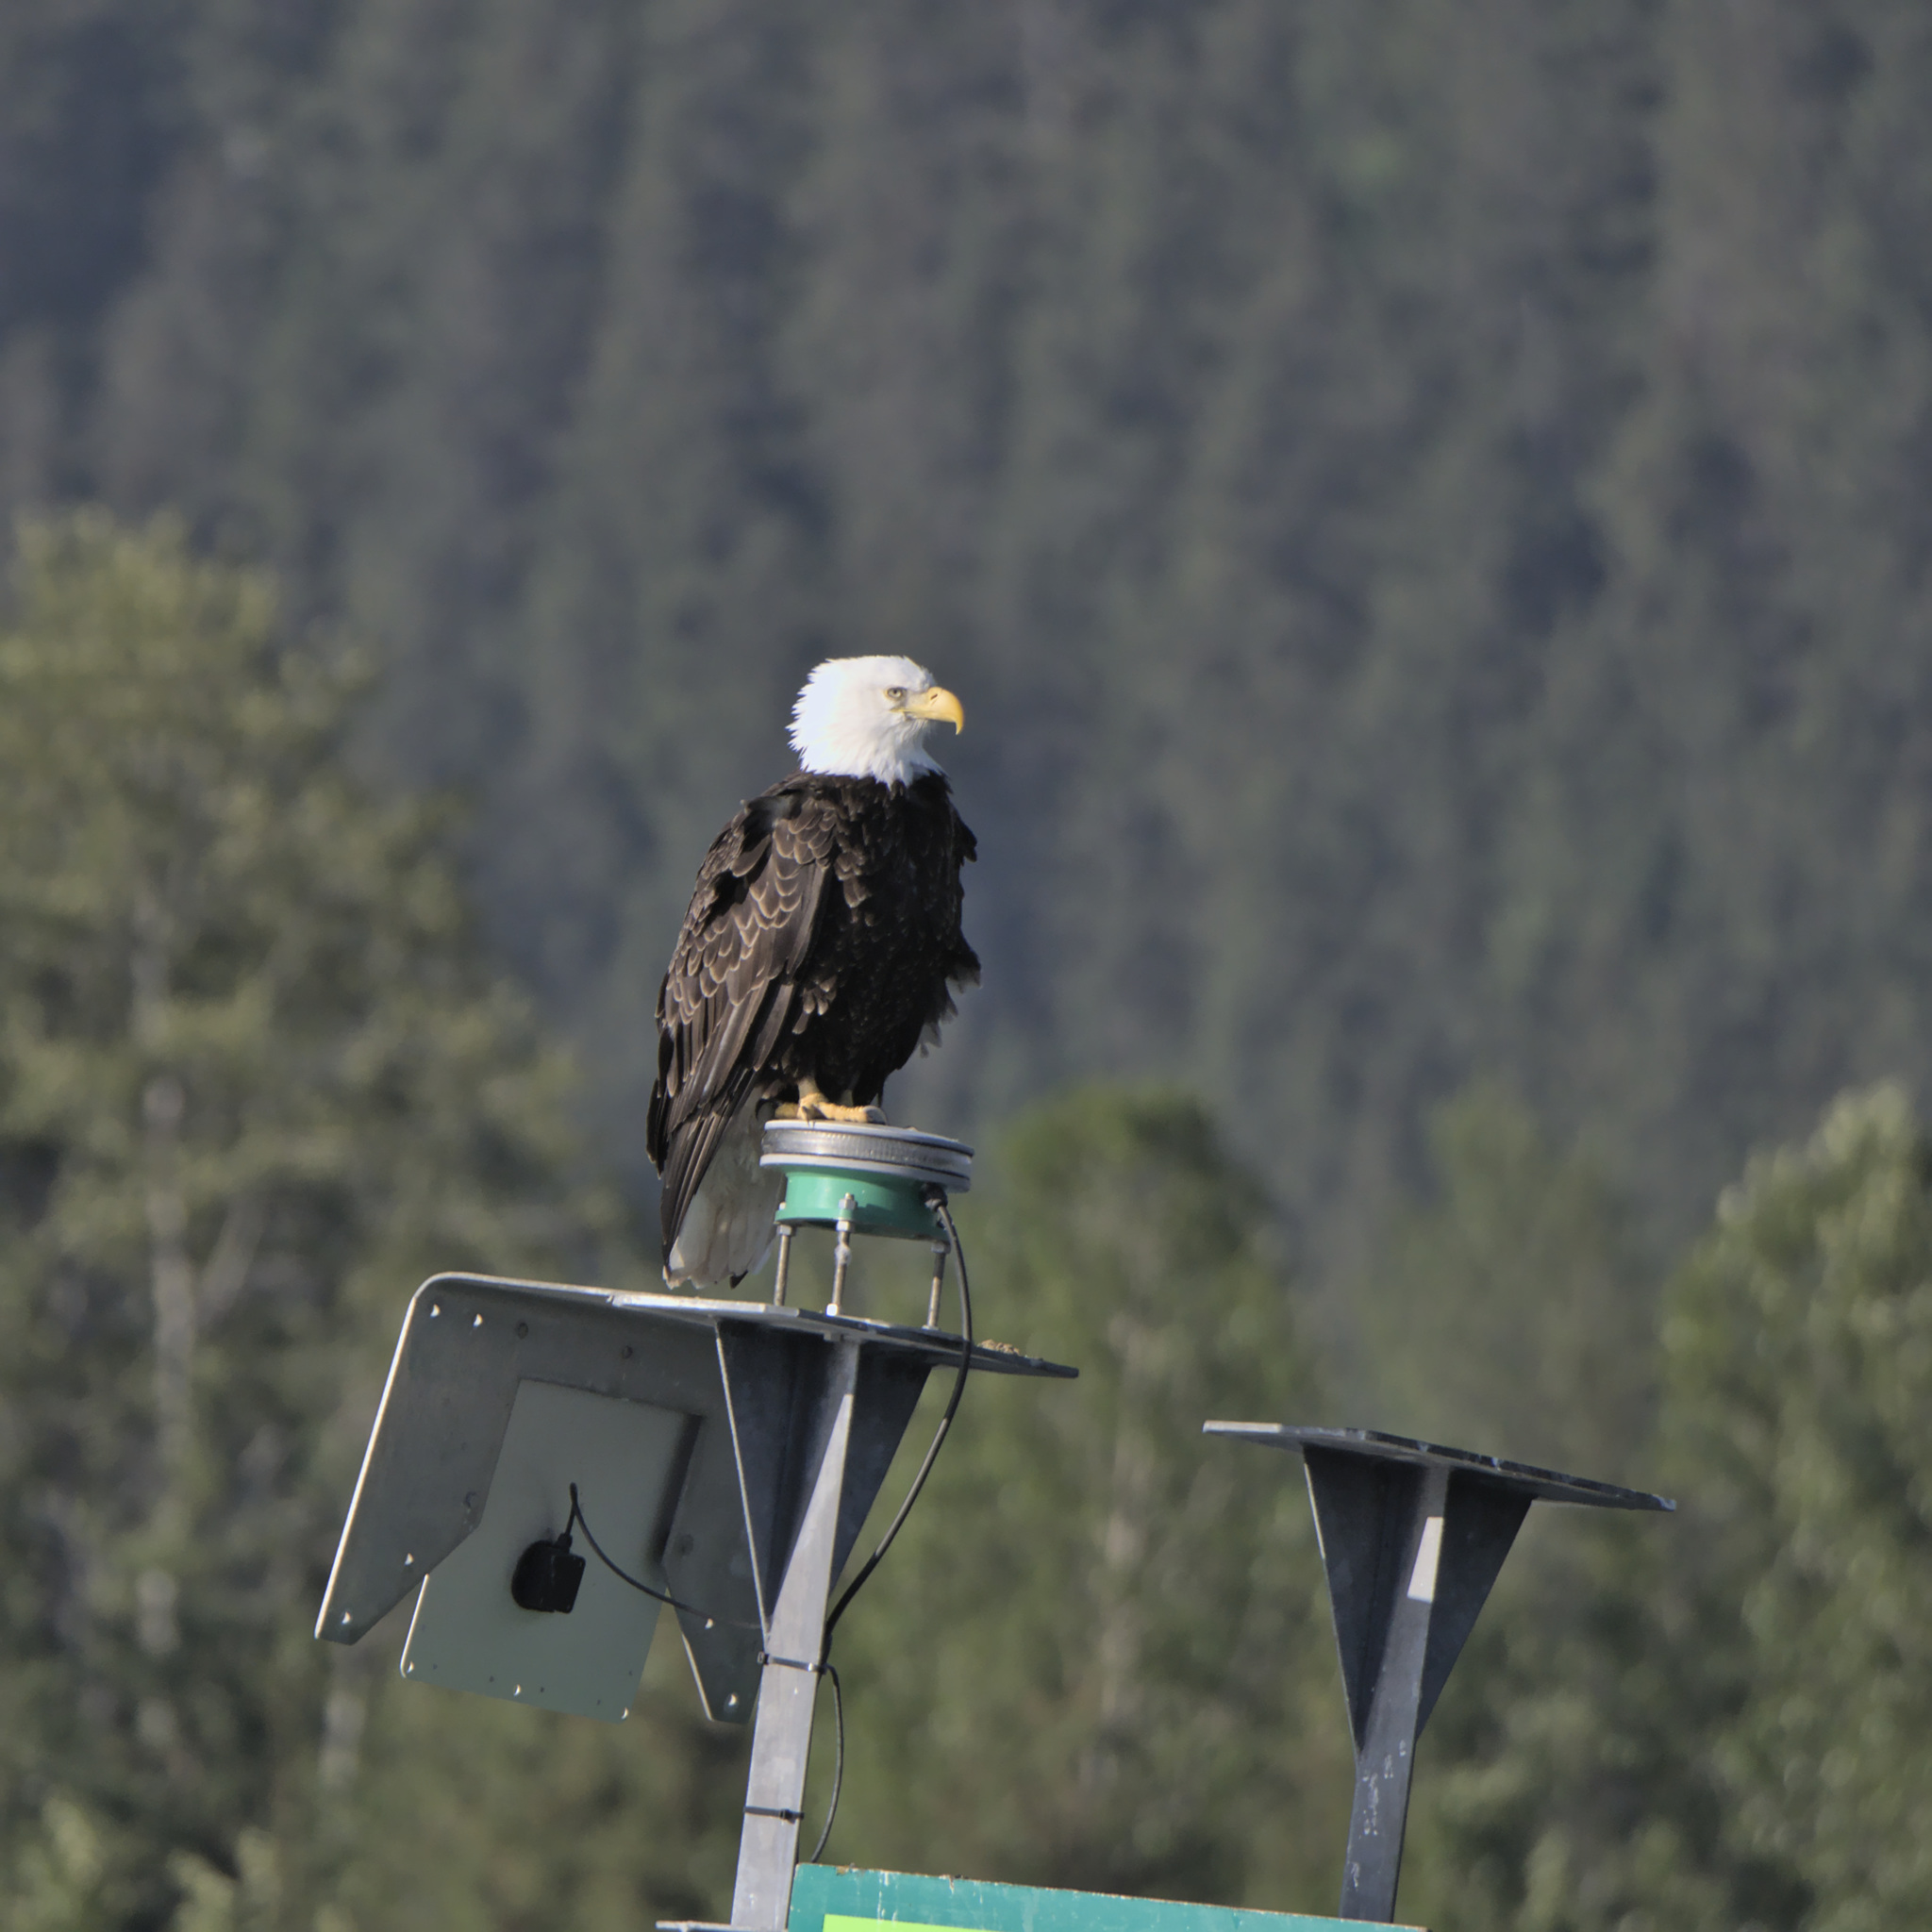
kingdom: Animalia
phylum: Chordata
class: Aves
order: Accipitriformes
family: Accipitridae
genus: Haliaeetus
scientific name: Haliaeetus leucocephalus
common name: Bald eagle
